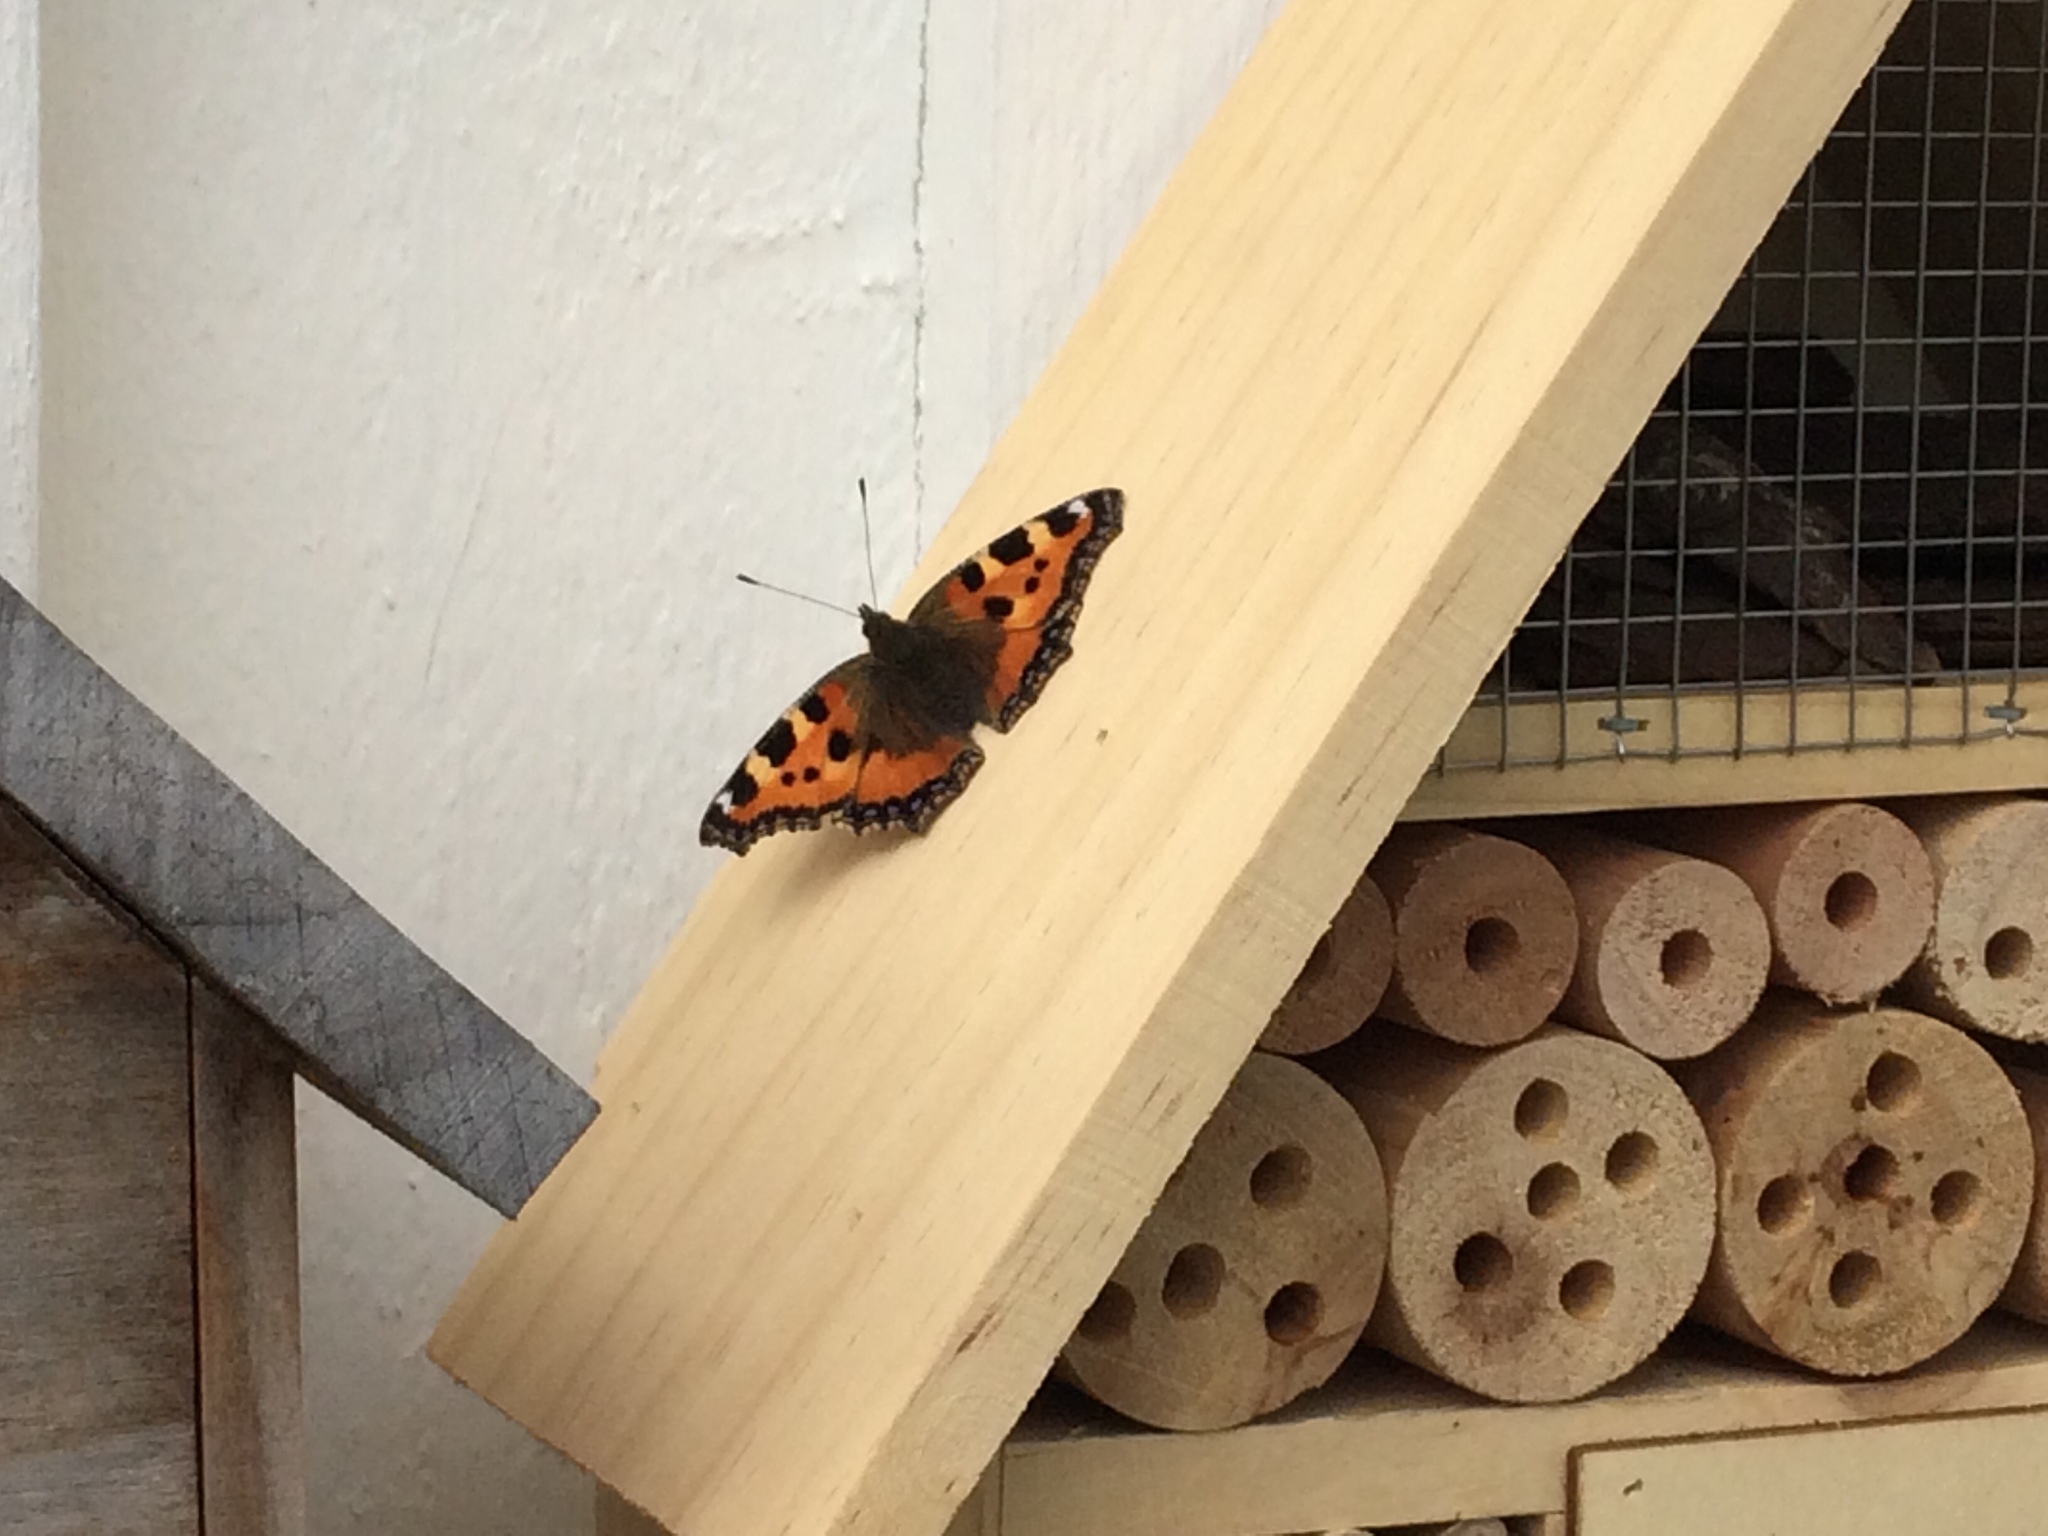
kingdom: Animalia
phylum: Arthropoda
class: Insecta
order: Lepidoptera
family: Nymphalidae
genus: Aglais
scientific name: Aglais urticae
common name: Small tortoiseshell
